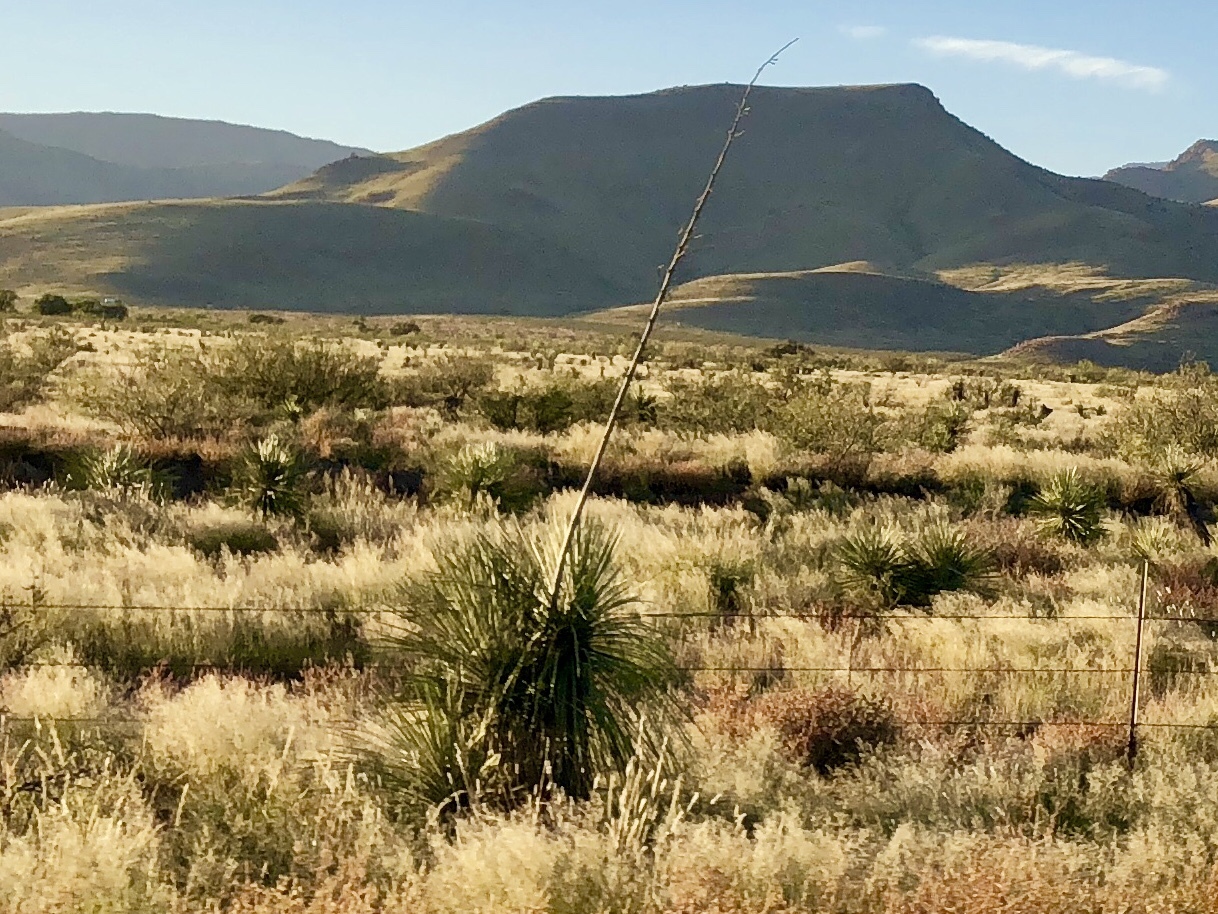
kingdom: Plantae
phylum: Tracheophyta
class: Liliopsida
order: Asparagales
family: Asparagaceae
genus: Yucca
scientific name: Yucca elata
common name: Palmella
